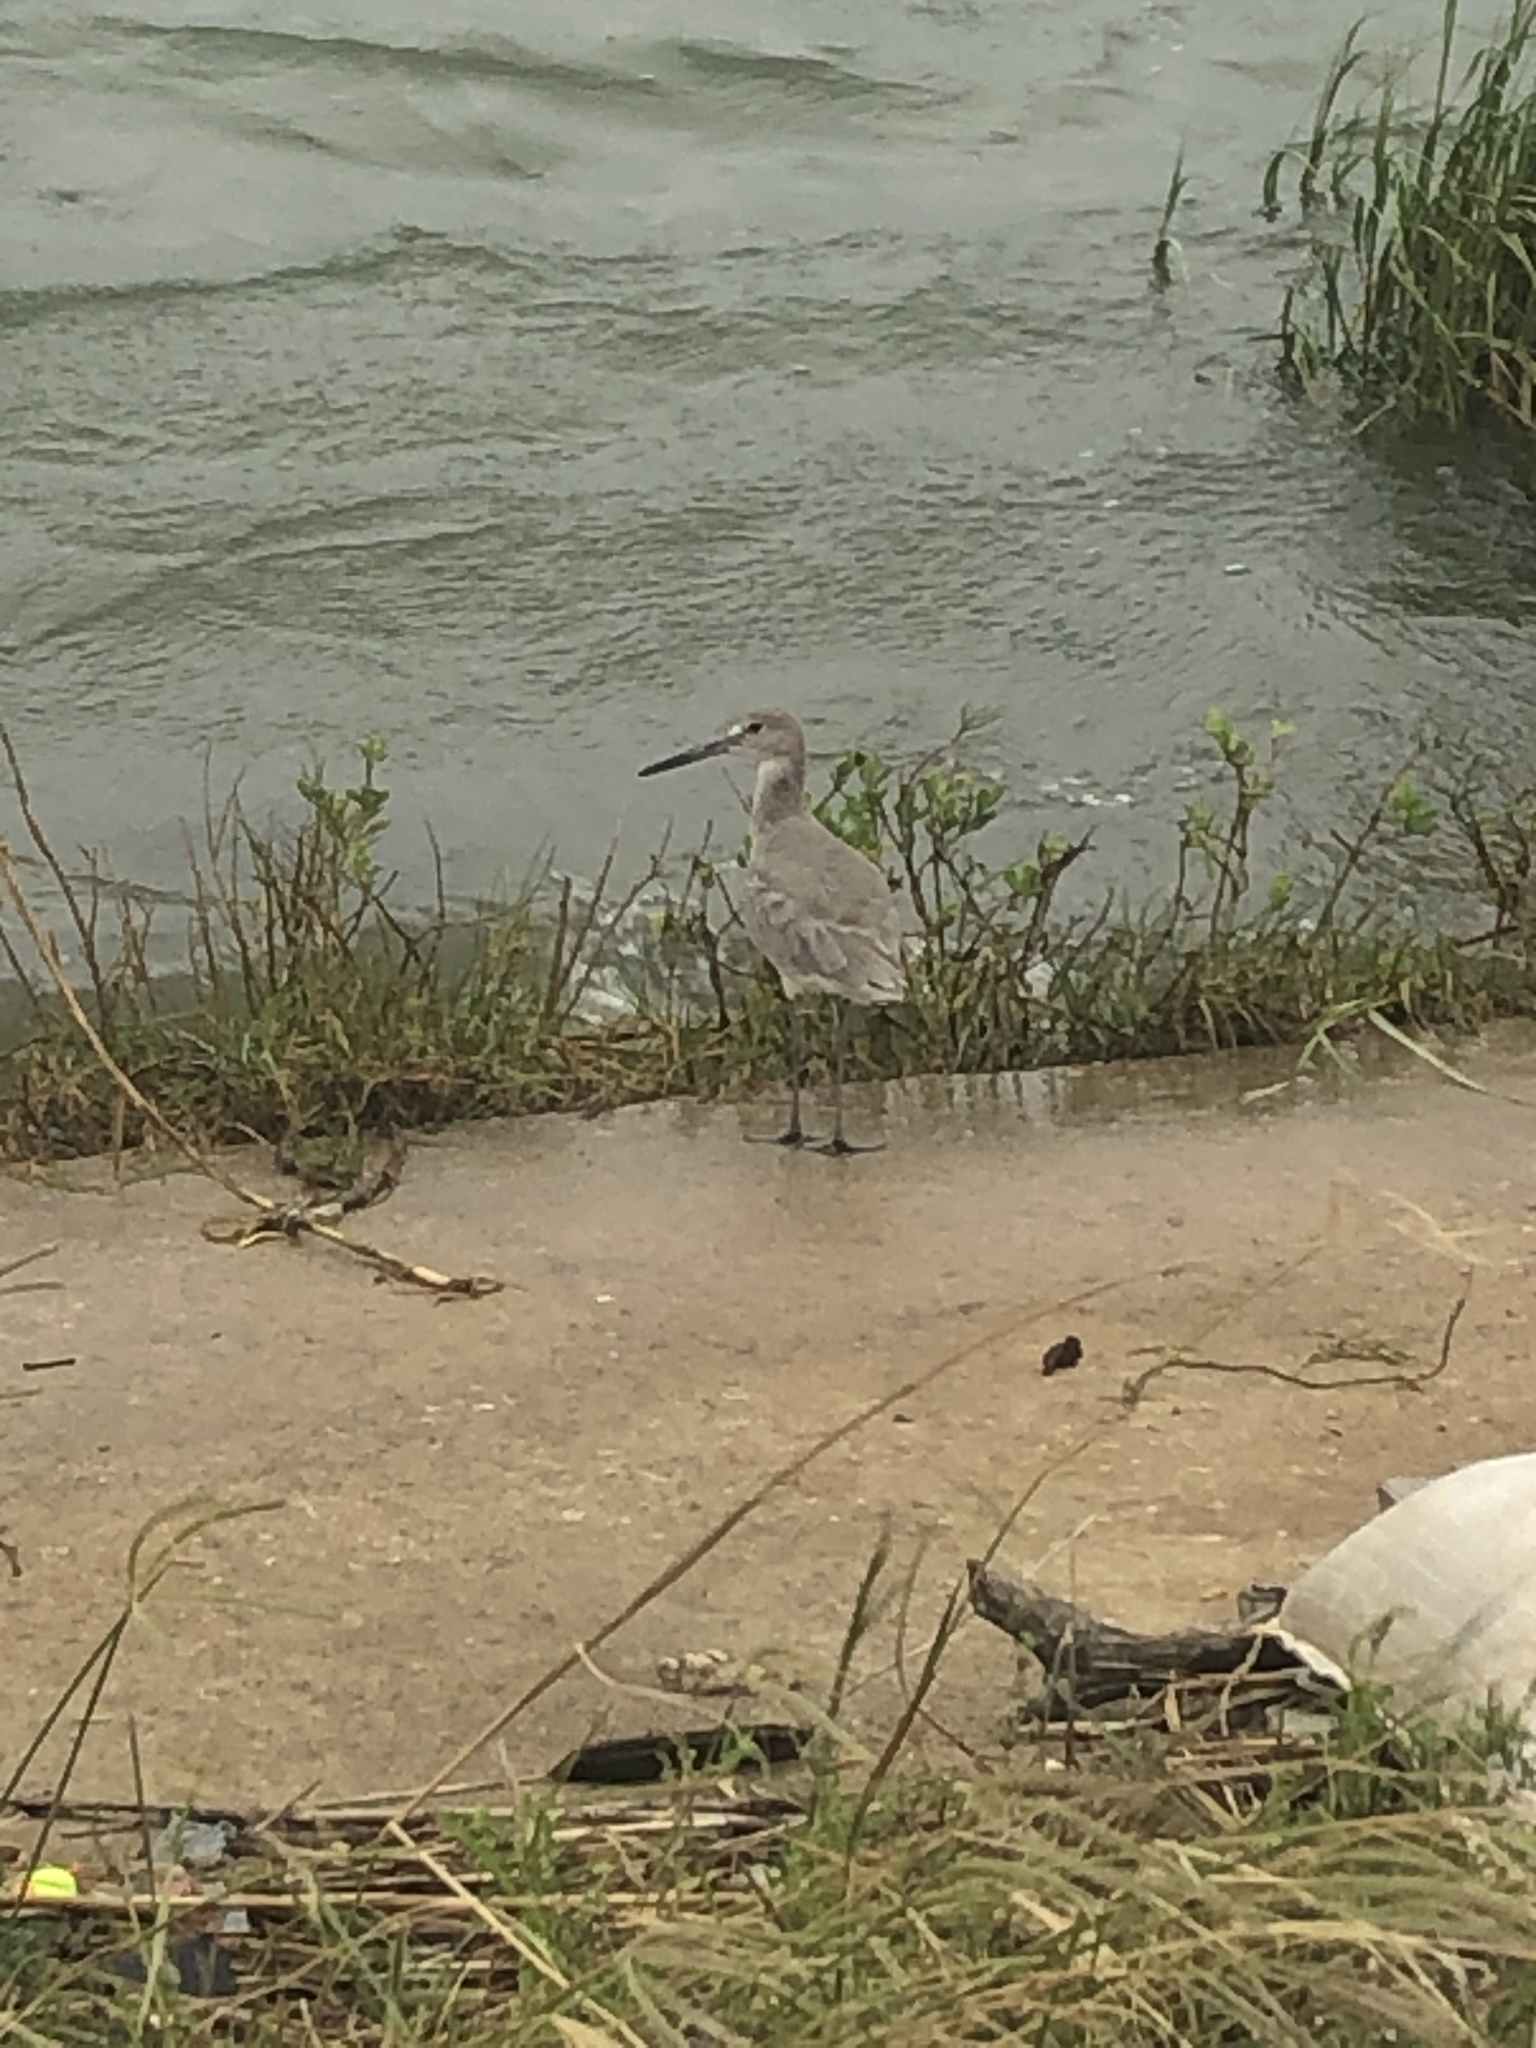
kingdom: Animalia
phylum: Chordata
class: Aves
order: Charadriiformes
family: Scolopacidae
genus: Tringa
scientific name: Tringa semipalmata
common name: Willet
